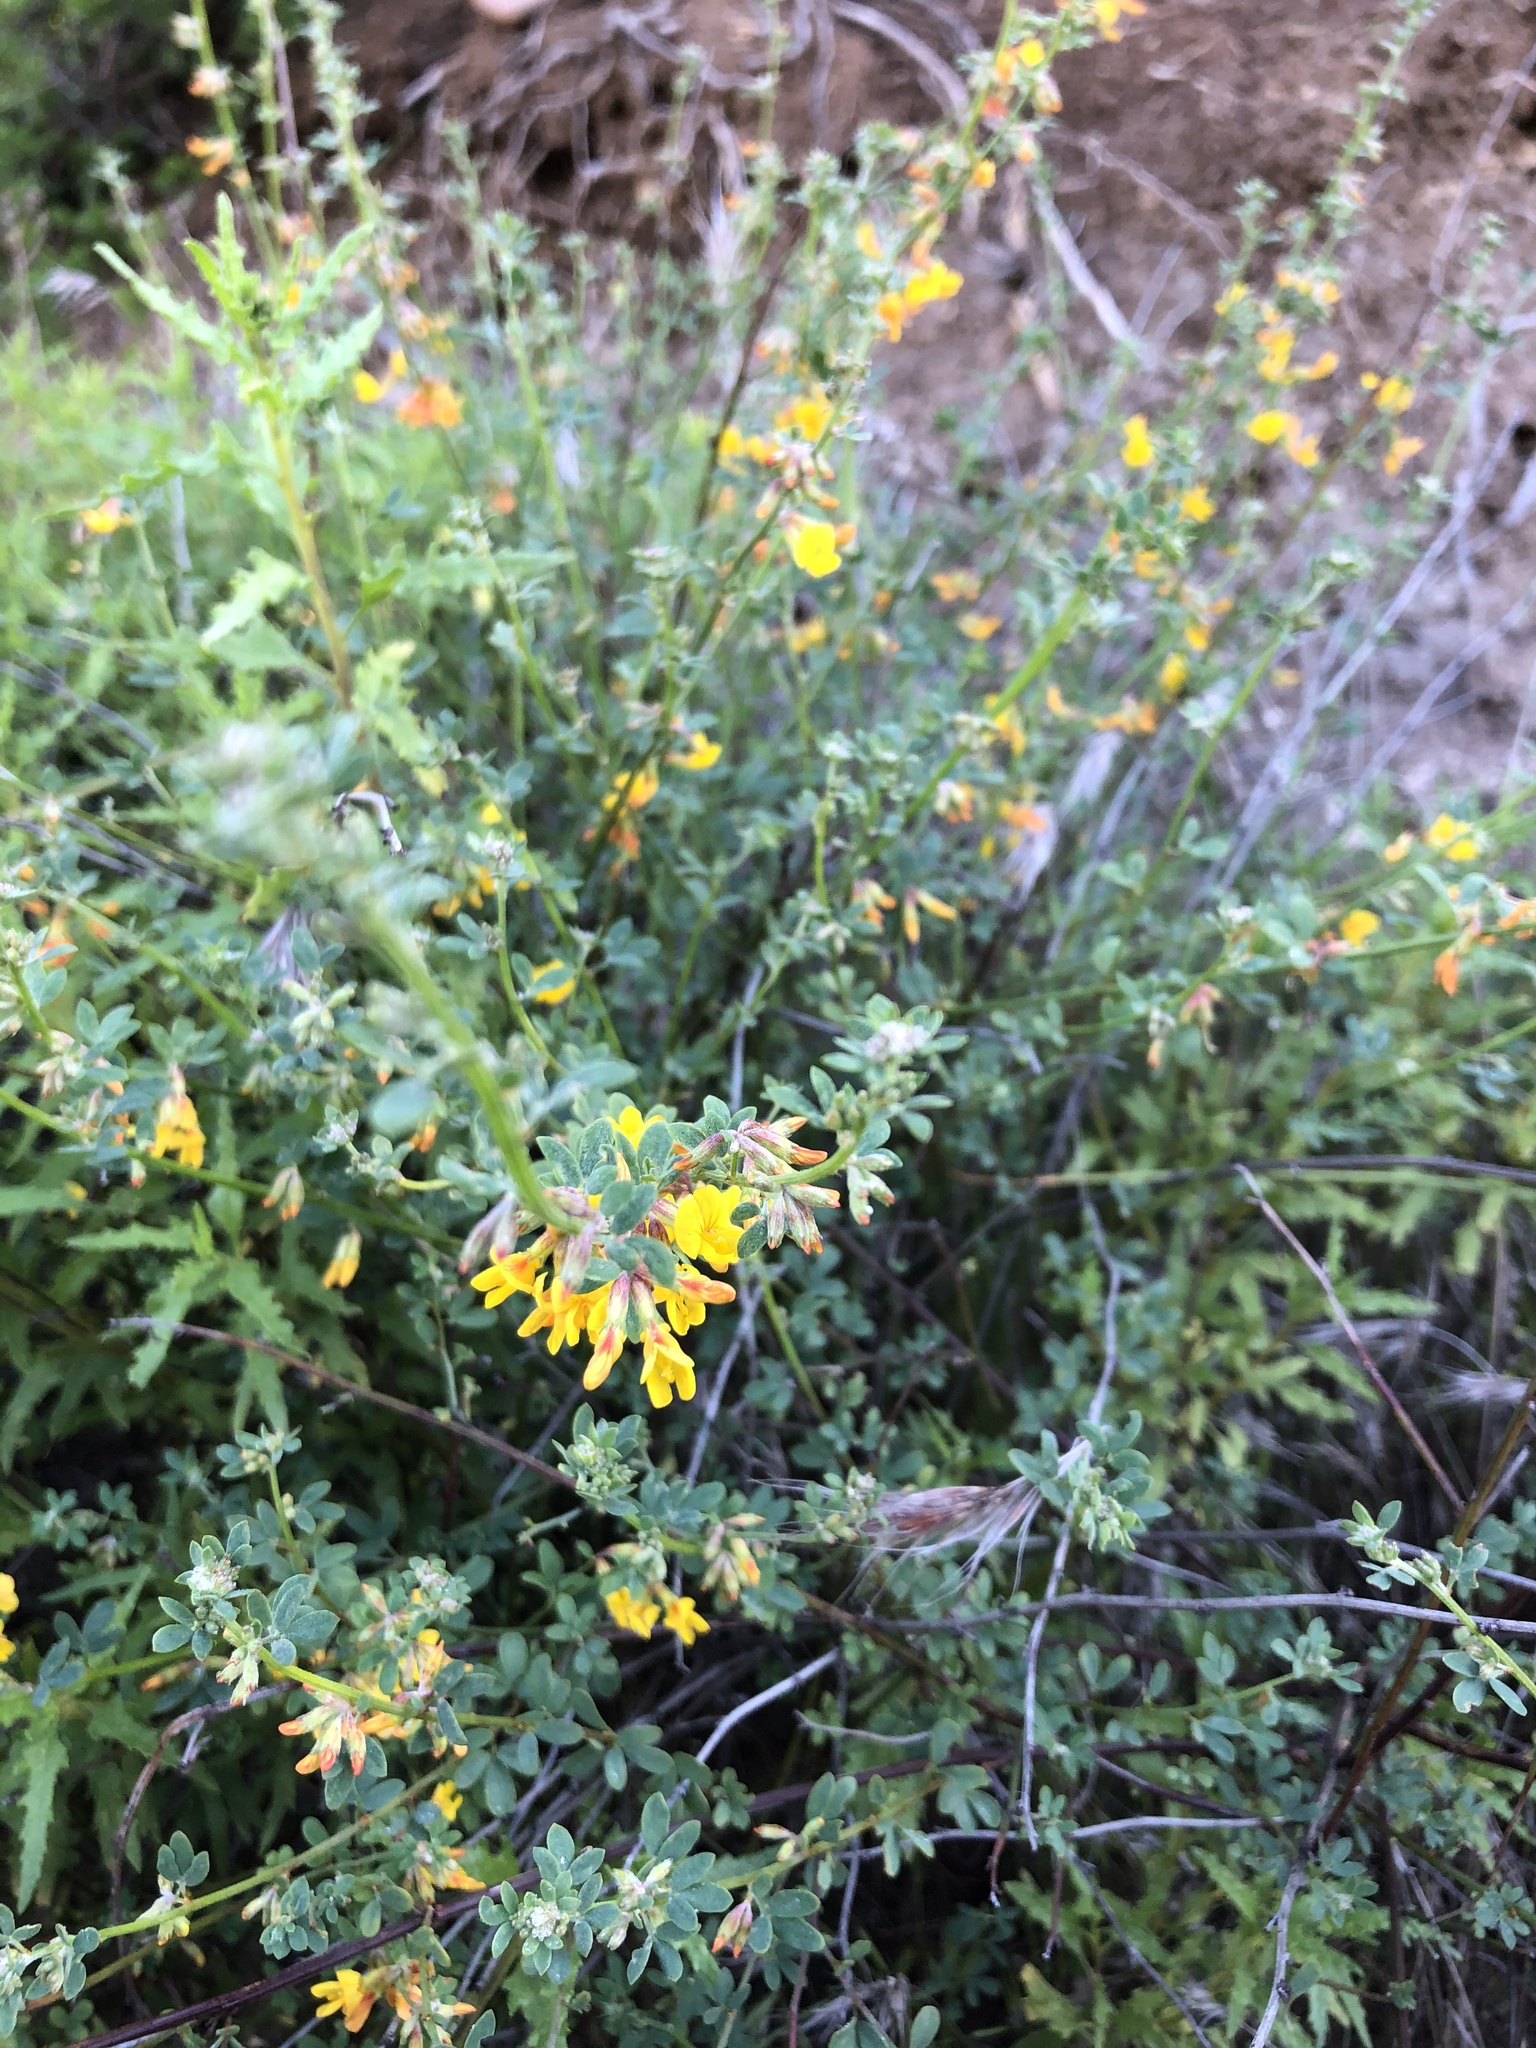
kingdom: Plantae
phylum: Tracheophyta
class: Magnoliopsida
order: Fabales
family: Fabaceae
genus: Acmispon
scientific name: Acmispon watsonii
